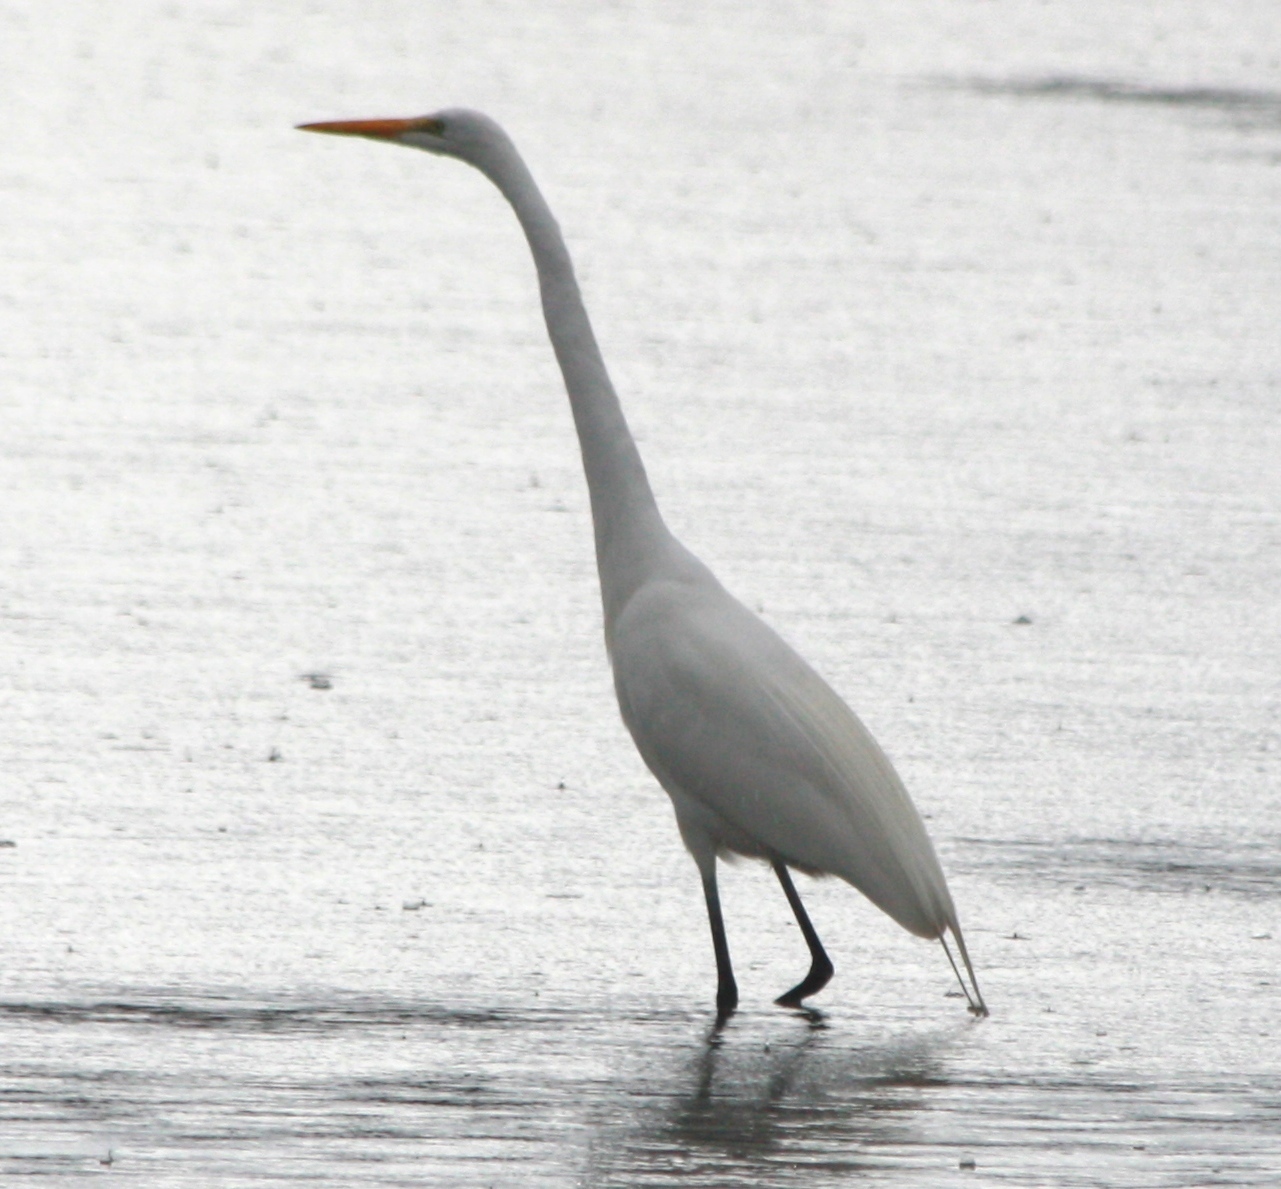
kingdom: Animalia
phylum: Chordata
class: Aves
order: Pelecaniformes
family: Ardeidae
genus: Ardea
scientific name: Ardea alba
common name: Great egret
